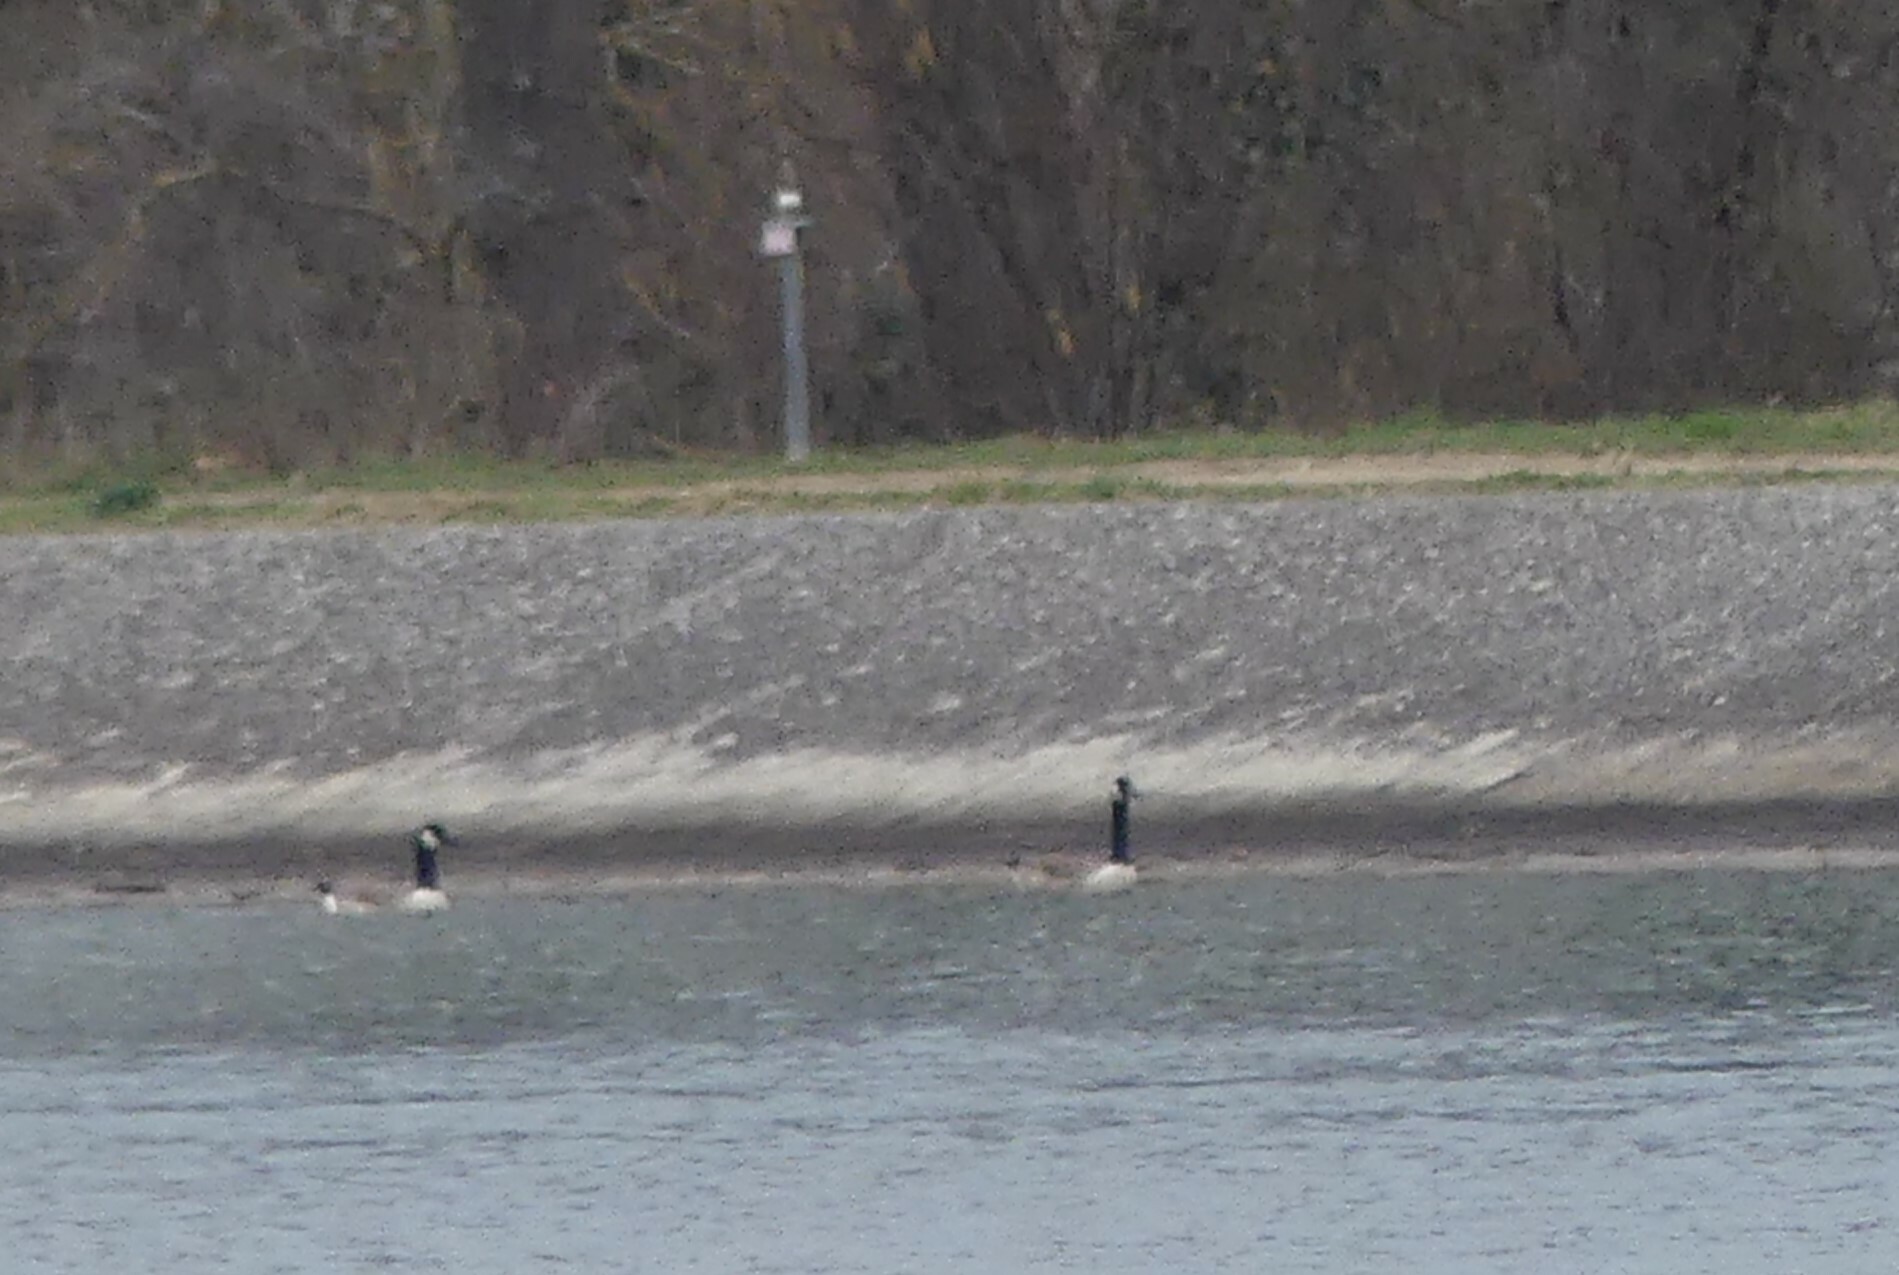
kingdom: Animalia
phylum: Chordata
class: Aves
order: Anseriformes
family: Anatidae
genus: Branta
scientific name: Branta canadensis
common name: Canada goose
